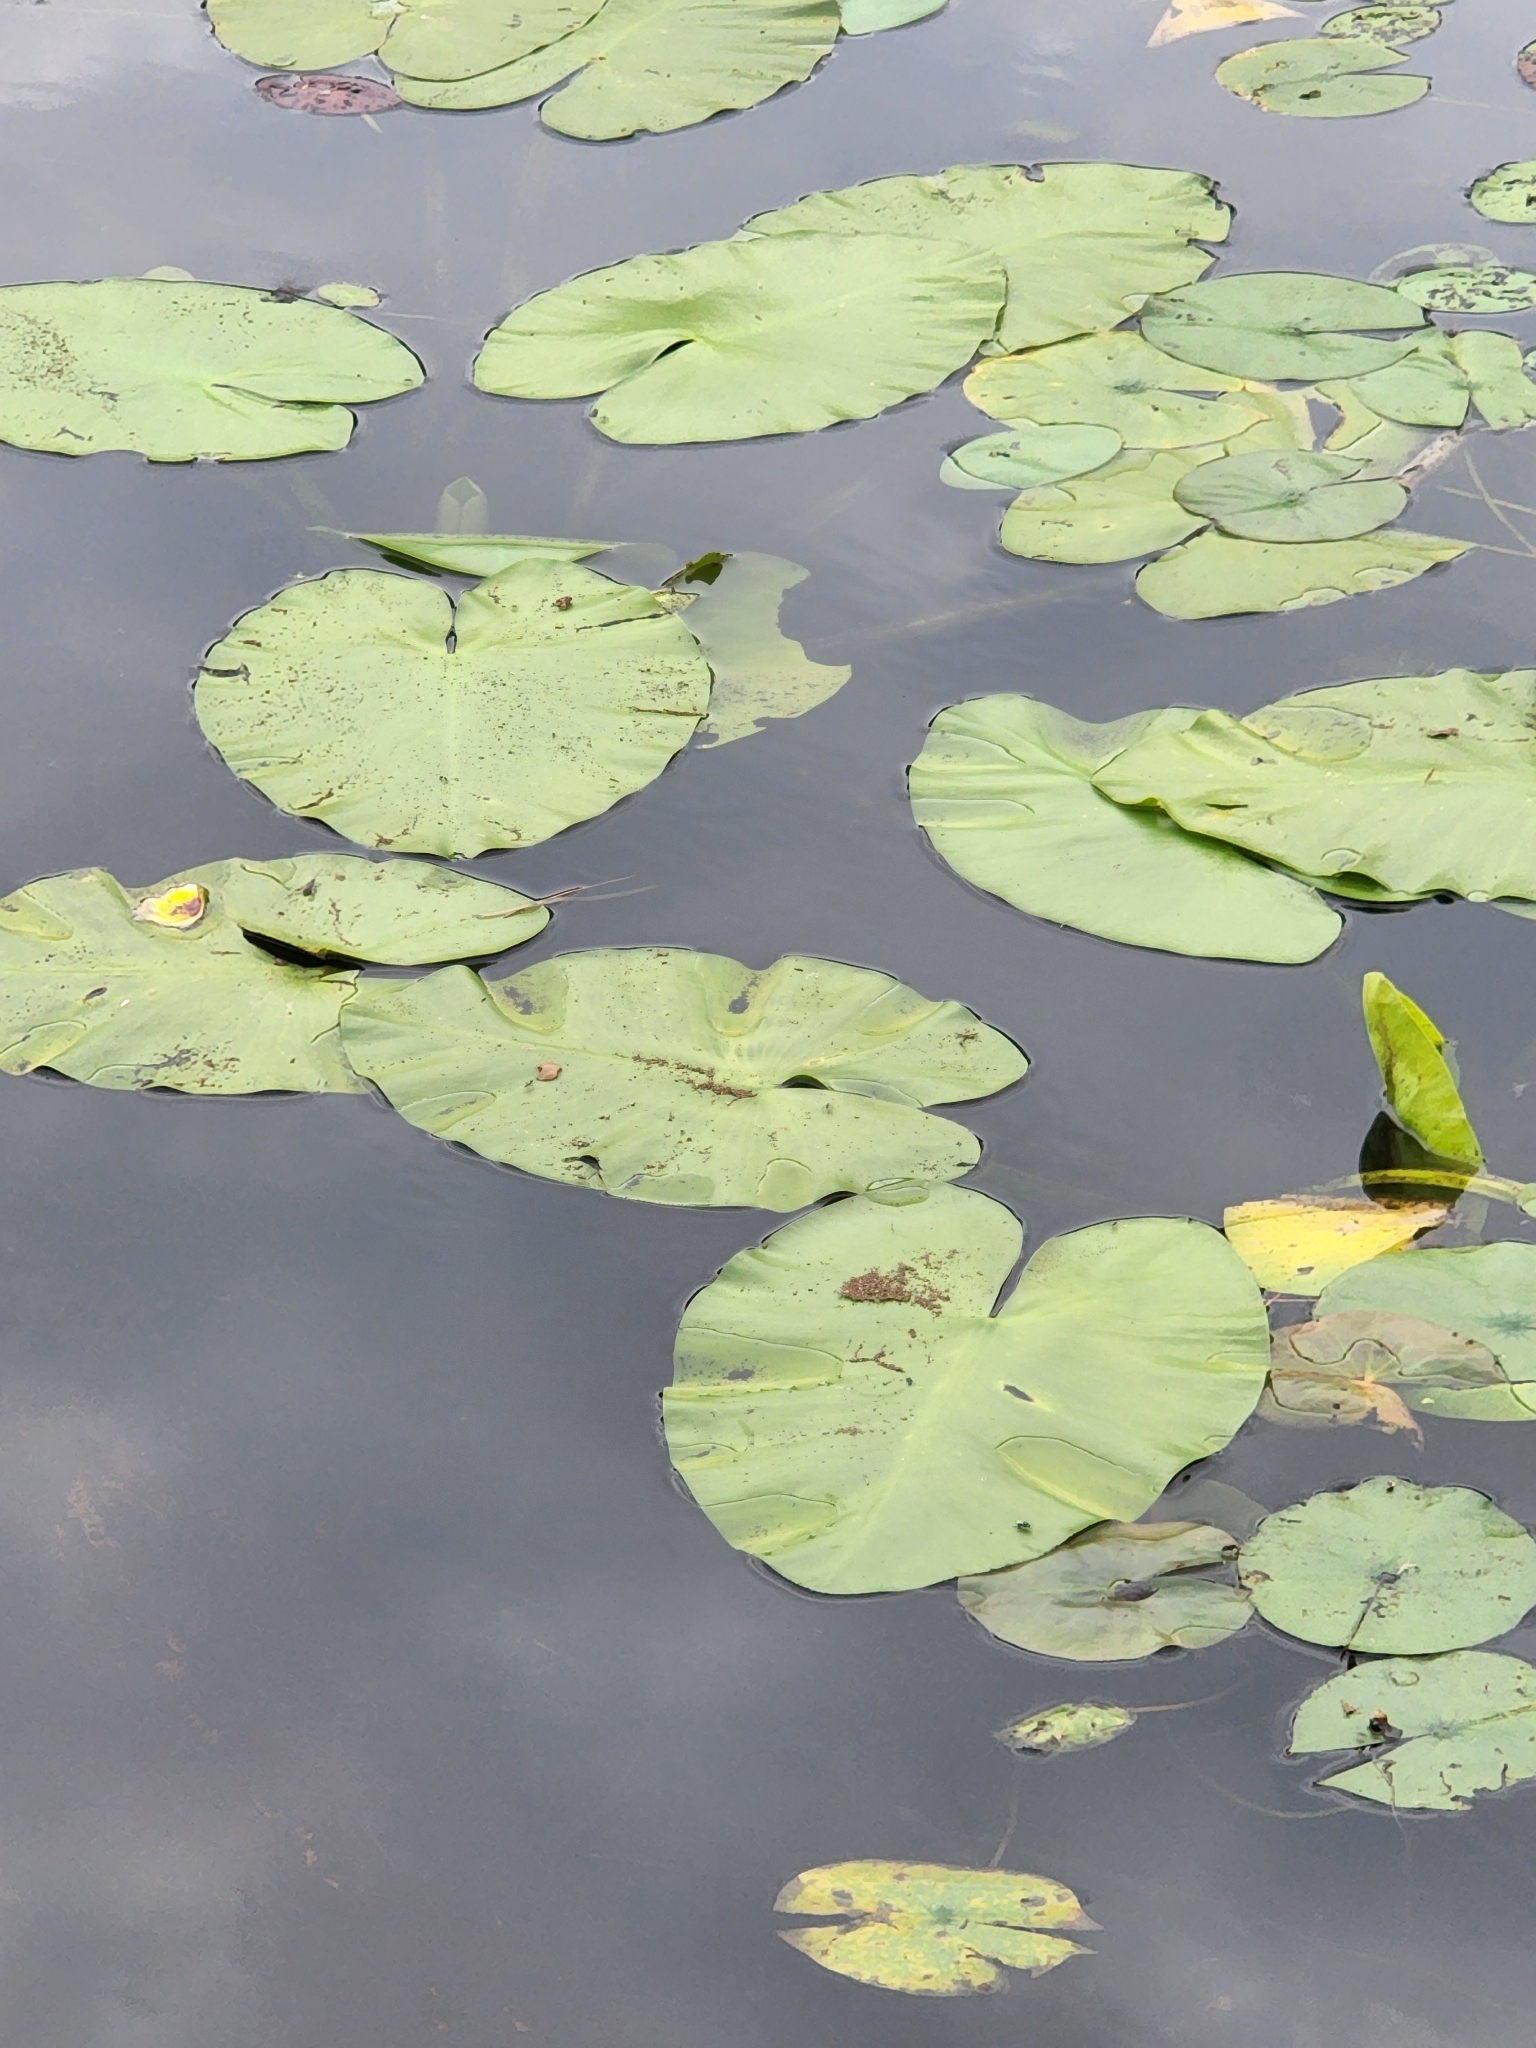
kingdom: Plantae
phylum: Tracheophyta
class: Magnoliopsida
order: Nymphaeales
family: Nymphaeaceae
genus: Nuphar
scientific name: Nuphar variegata
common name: Beaver-root
